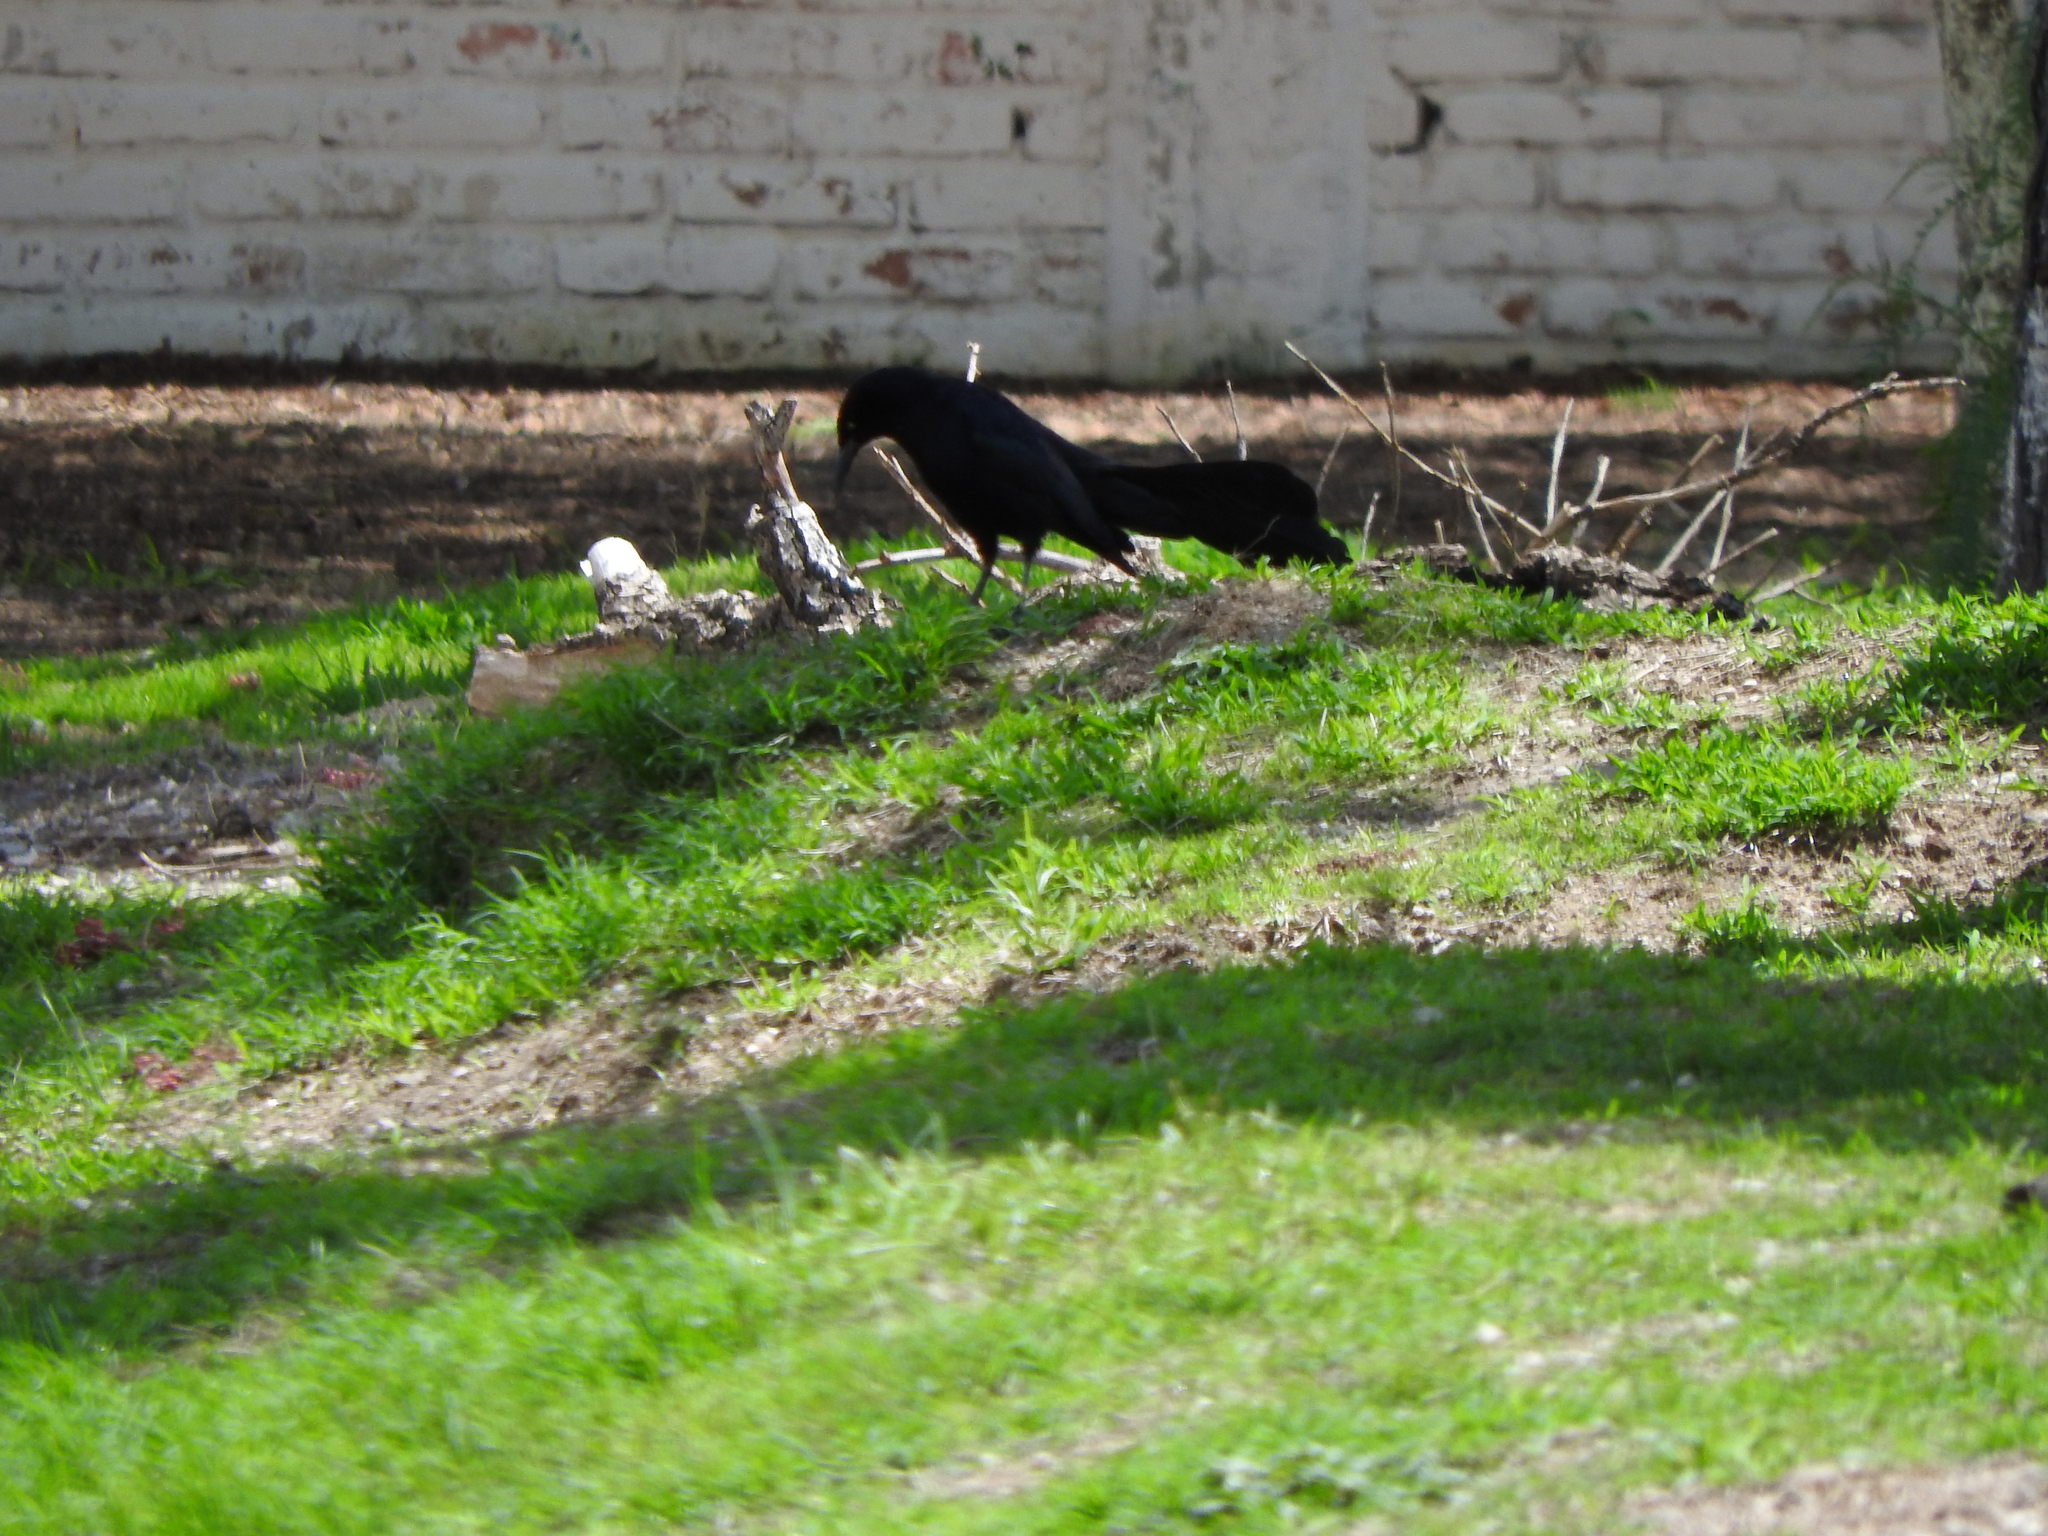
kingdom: Animalia
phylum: Chordata
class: Aves
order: Passeriformes
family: Icteridae
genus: Quiscalus
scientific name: Quiscalus mexicanus
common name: Great-tailed grackle
